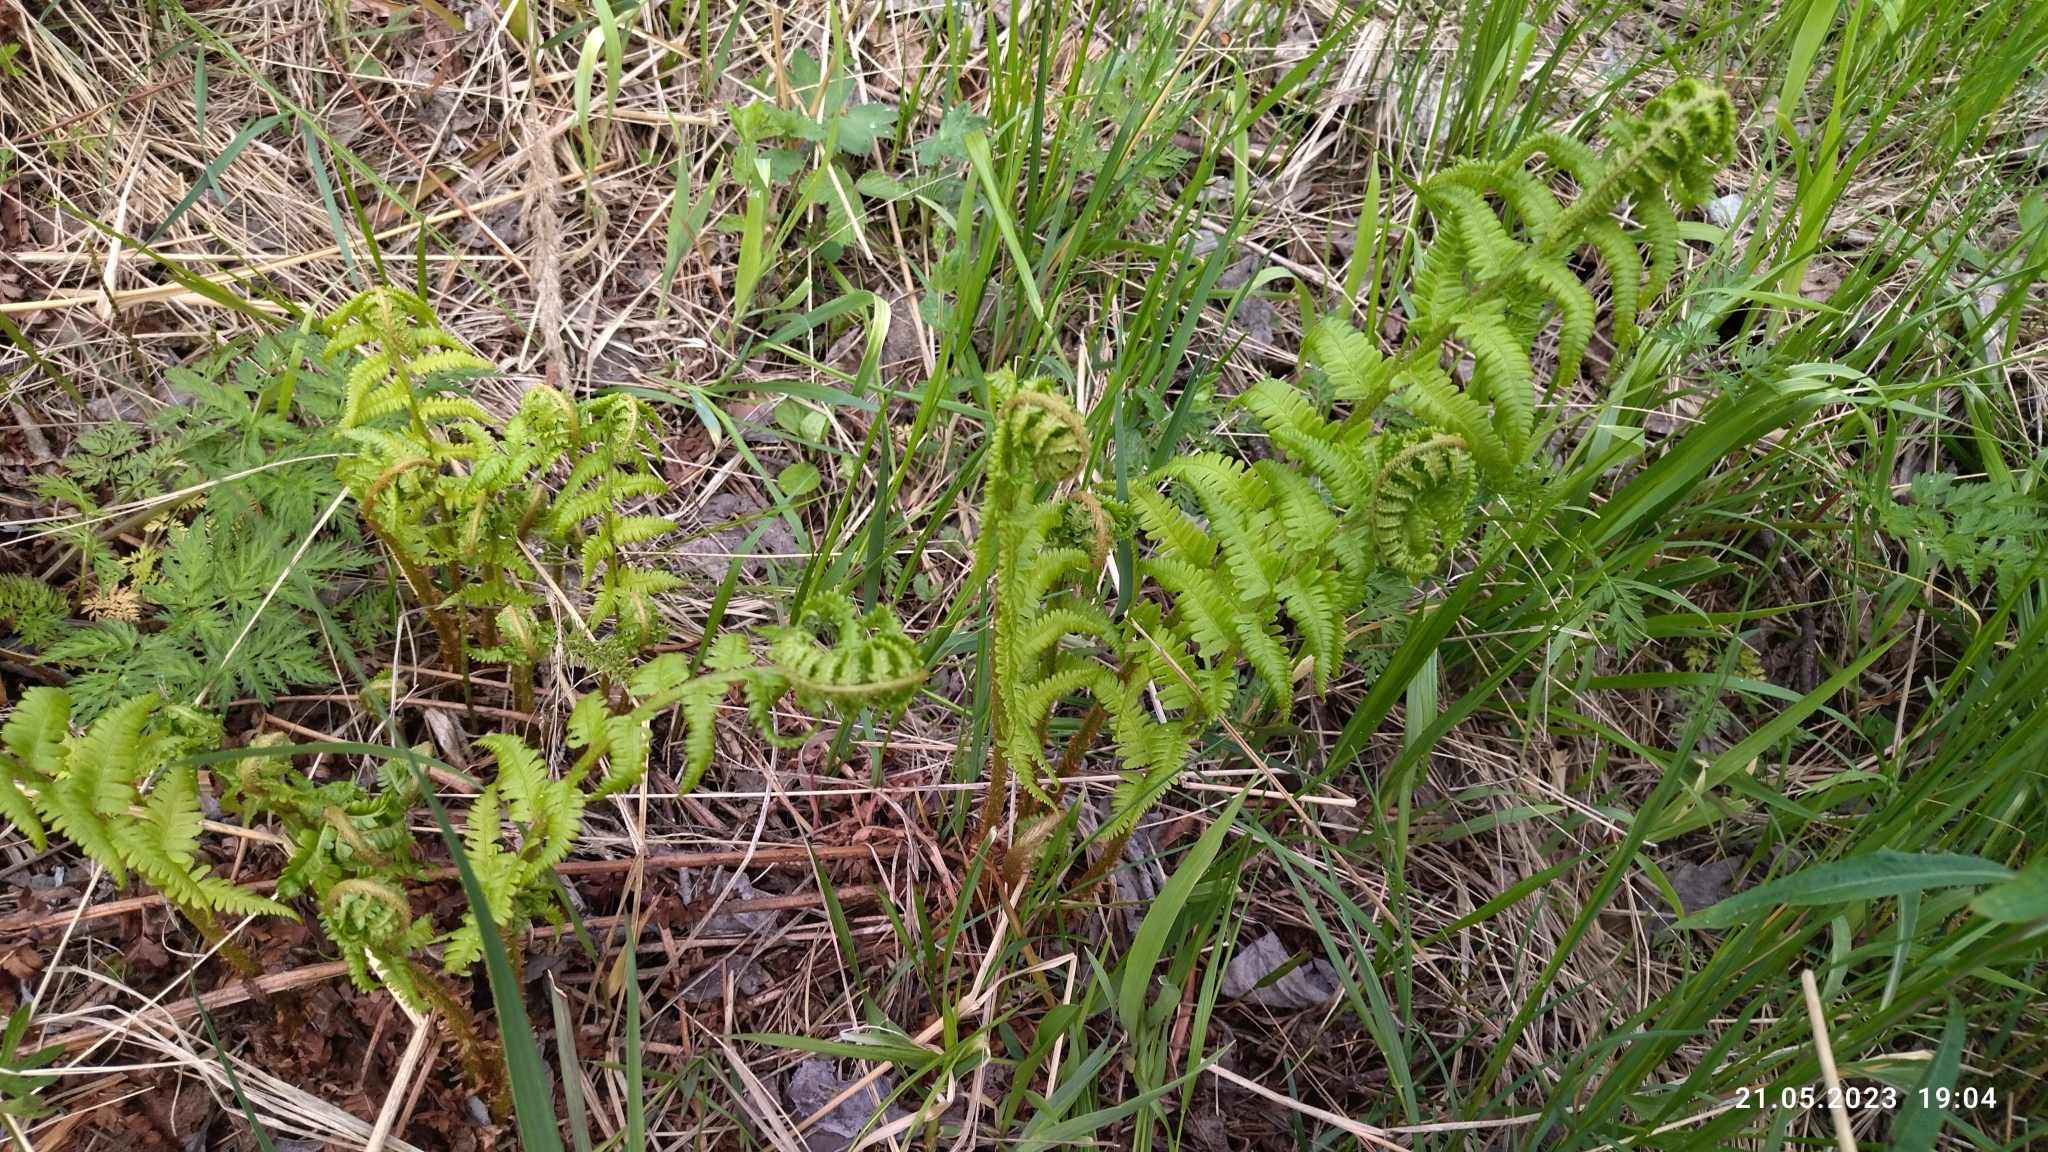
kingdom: Plantae
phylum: Tracheophyta
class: Polypodiopsida
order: Polypodiales
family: Dryopteridaceae
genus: Dryopteris
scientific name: Dryopteris filix-mas
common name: Male fern
